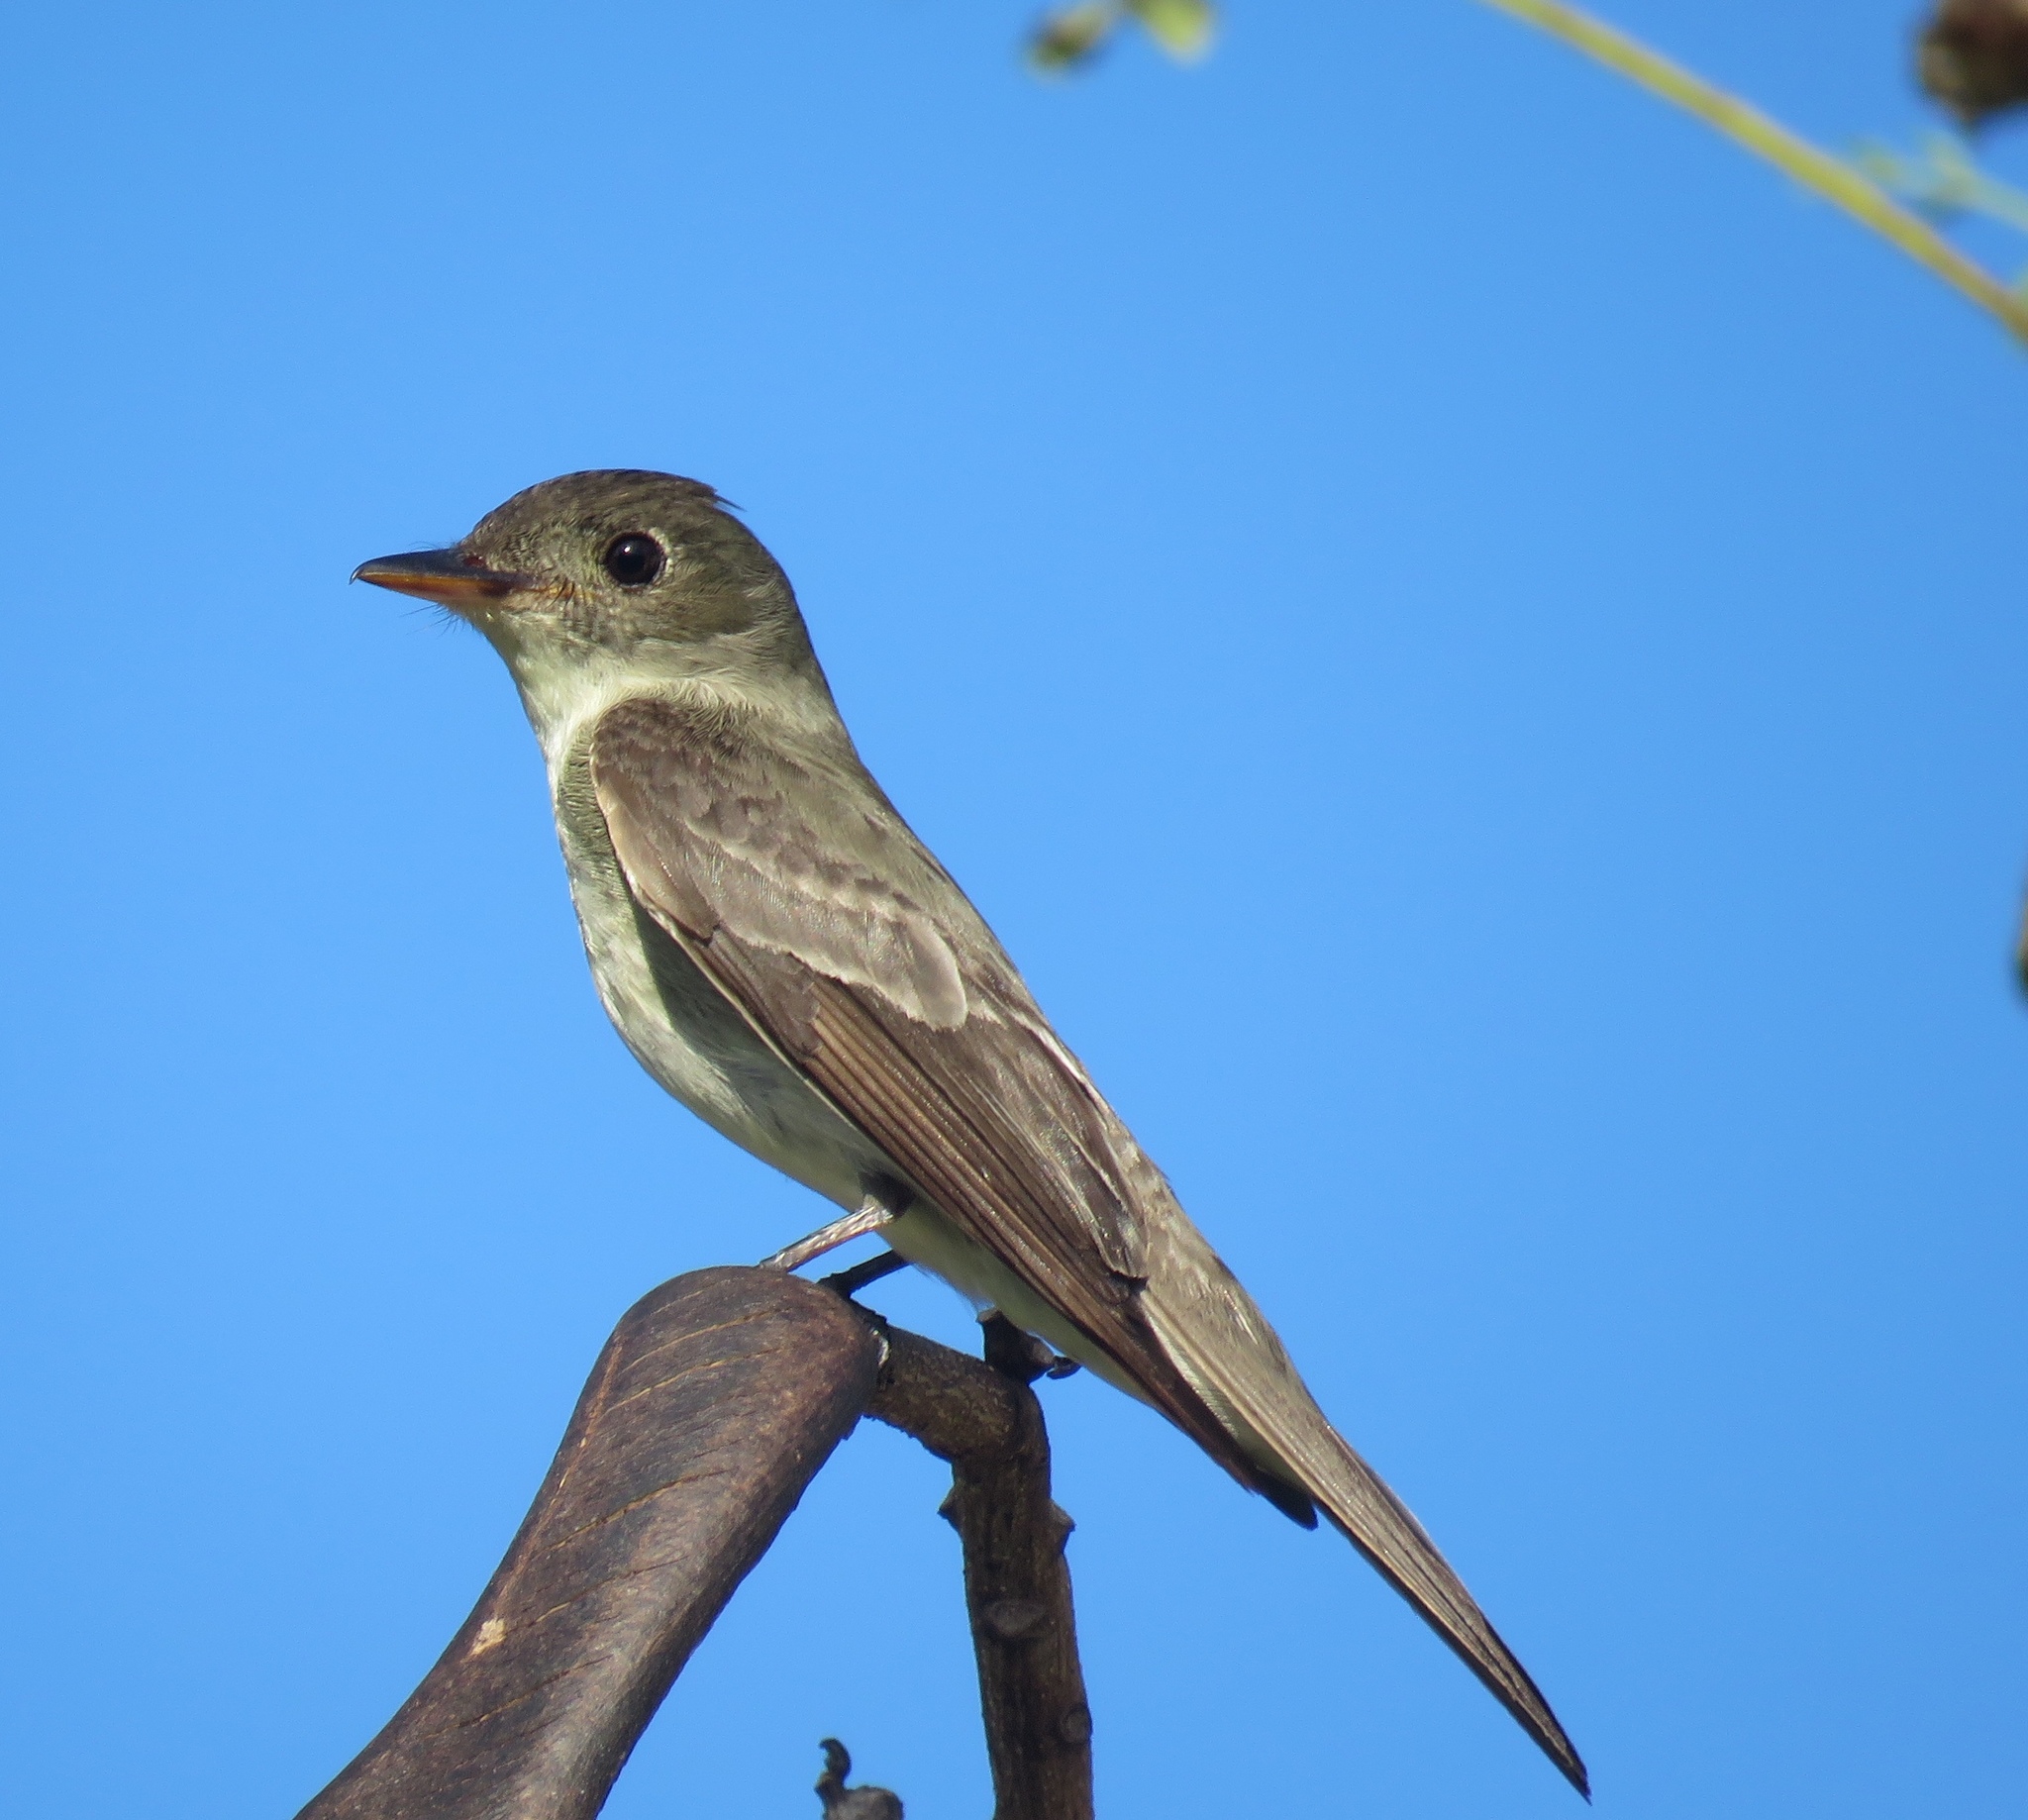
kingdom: Animalia
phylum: Chordata
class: Aves
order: Passeriformes
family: Tyrannidae
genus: Contopus
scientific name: Contopus virens
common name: Eastern wood-pewee
